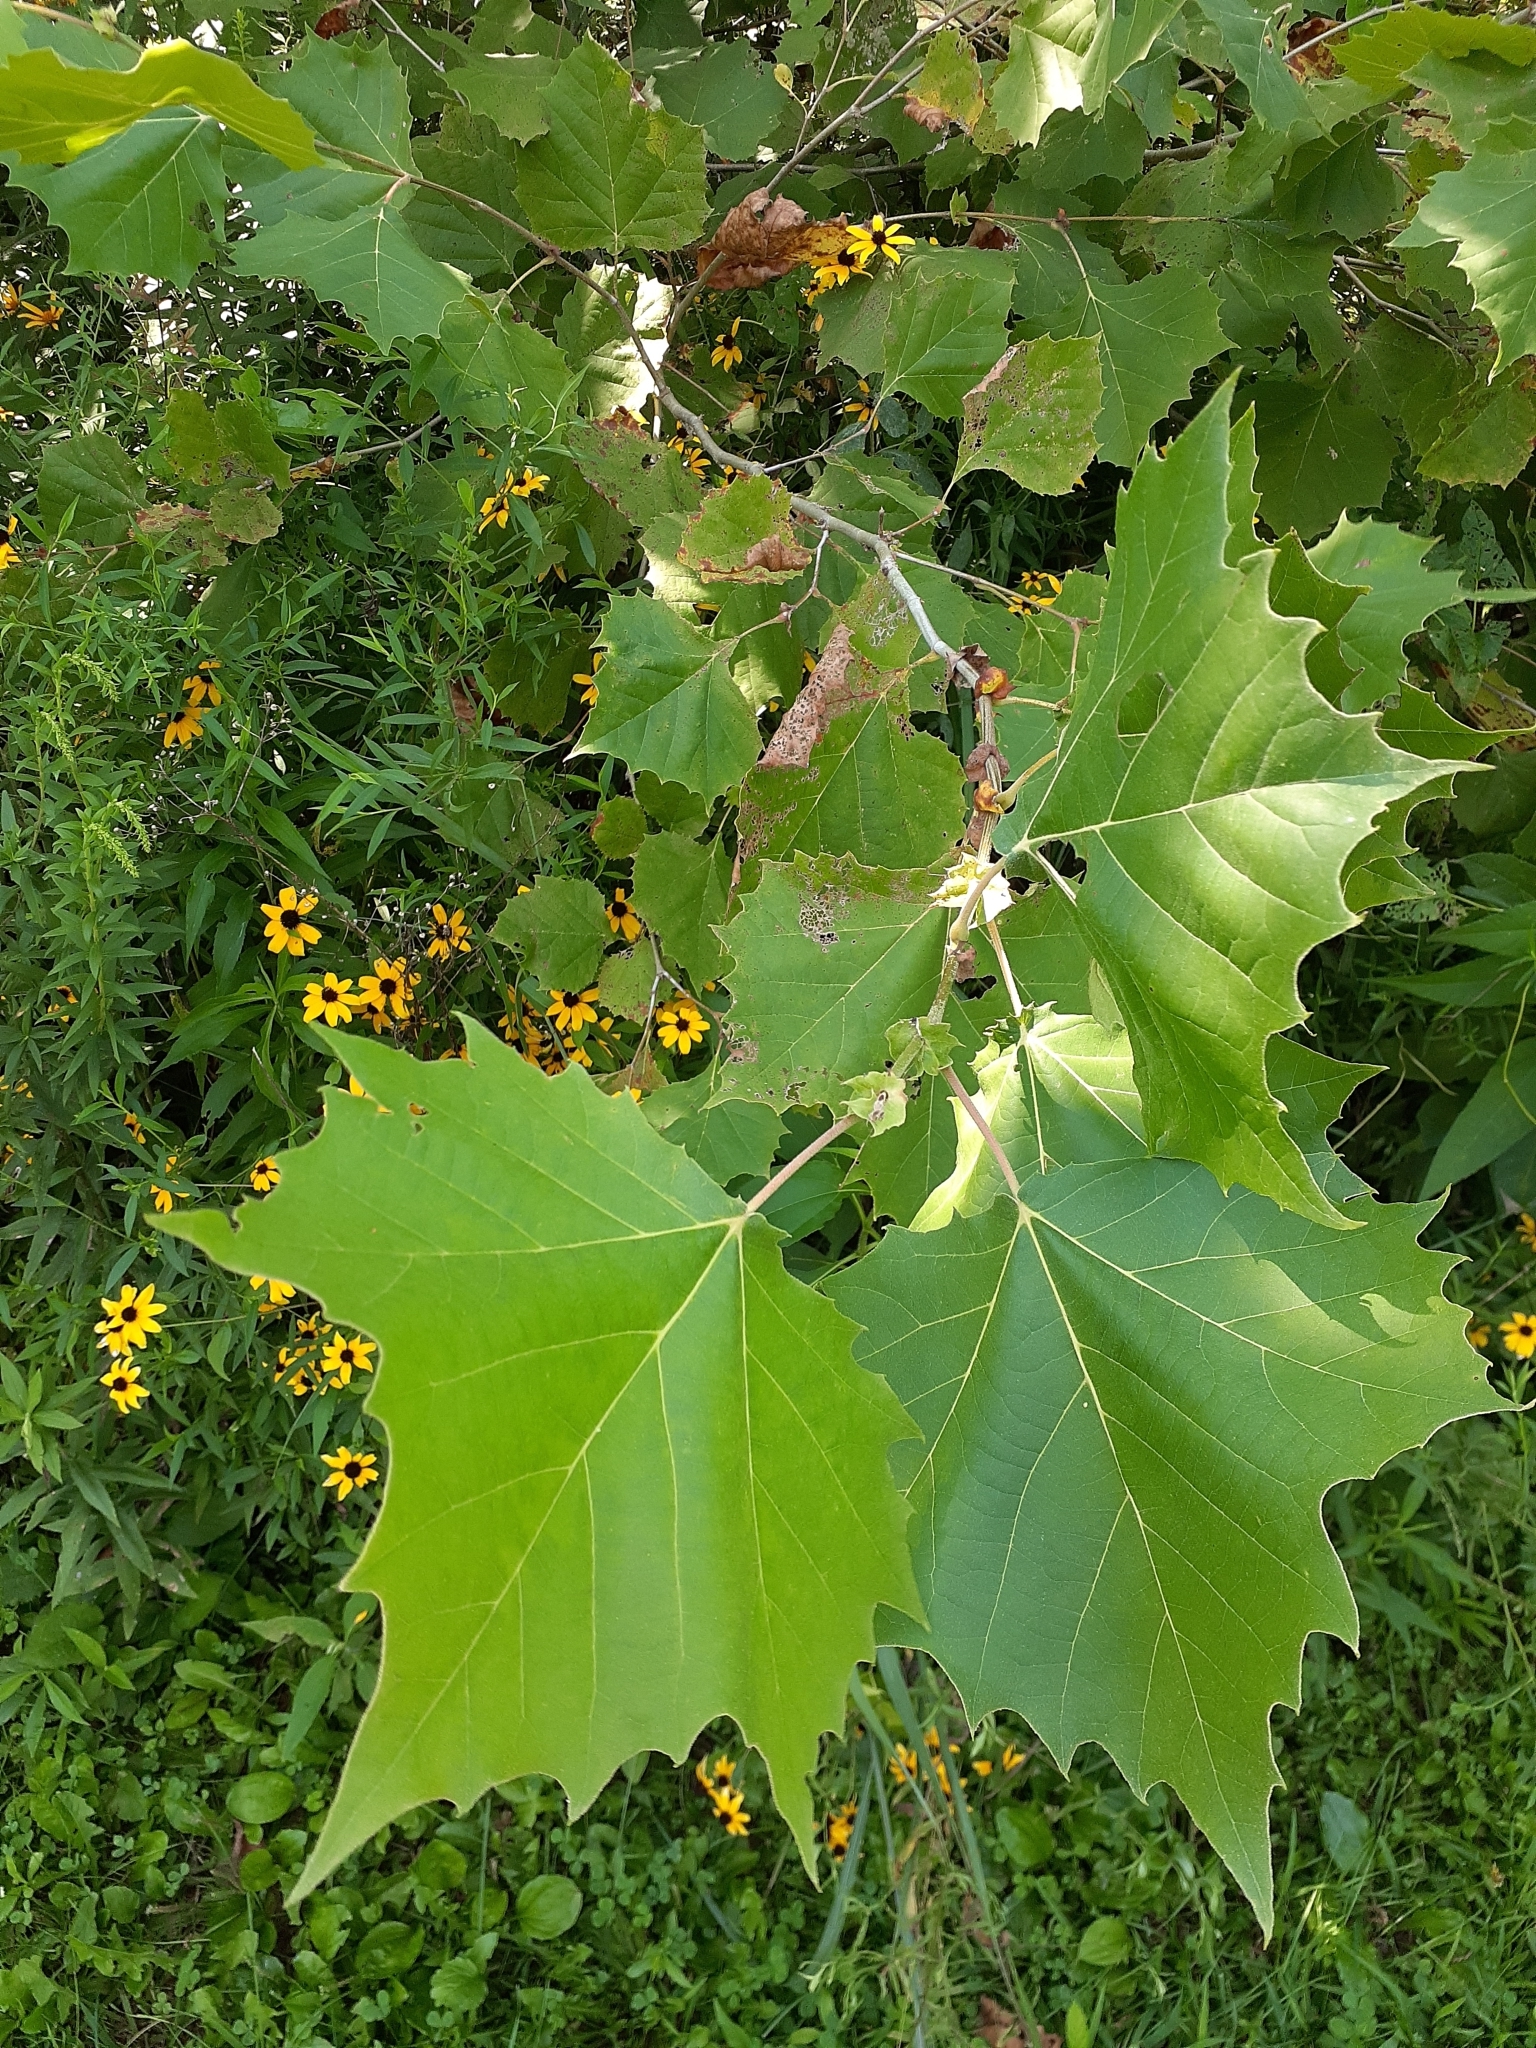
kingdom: Plantae
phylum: Tracheophyta
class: Magnoliopsida
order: Proteales
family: Platanaceae
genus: Platanus
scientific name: Platanus occidentalis
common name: American sycamore
